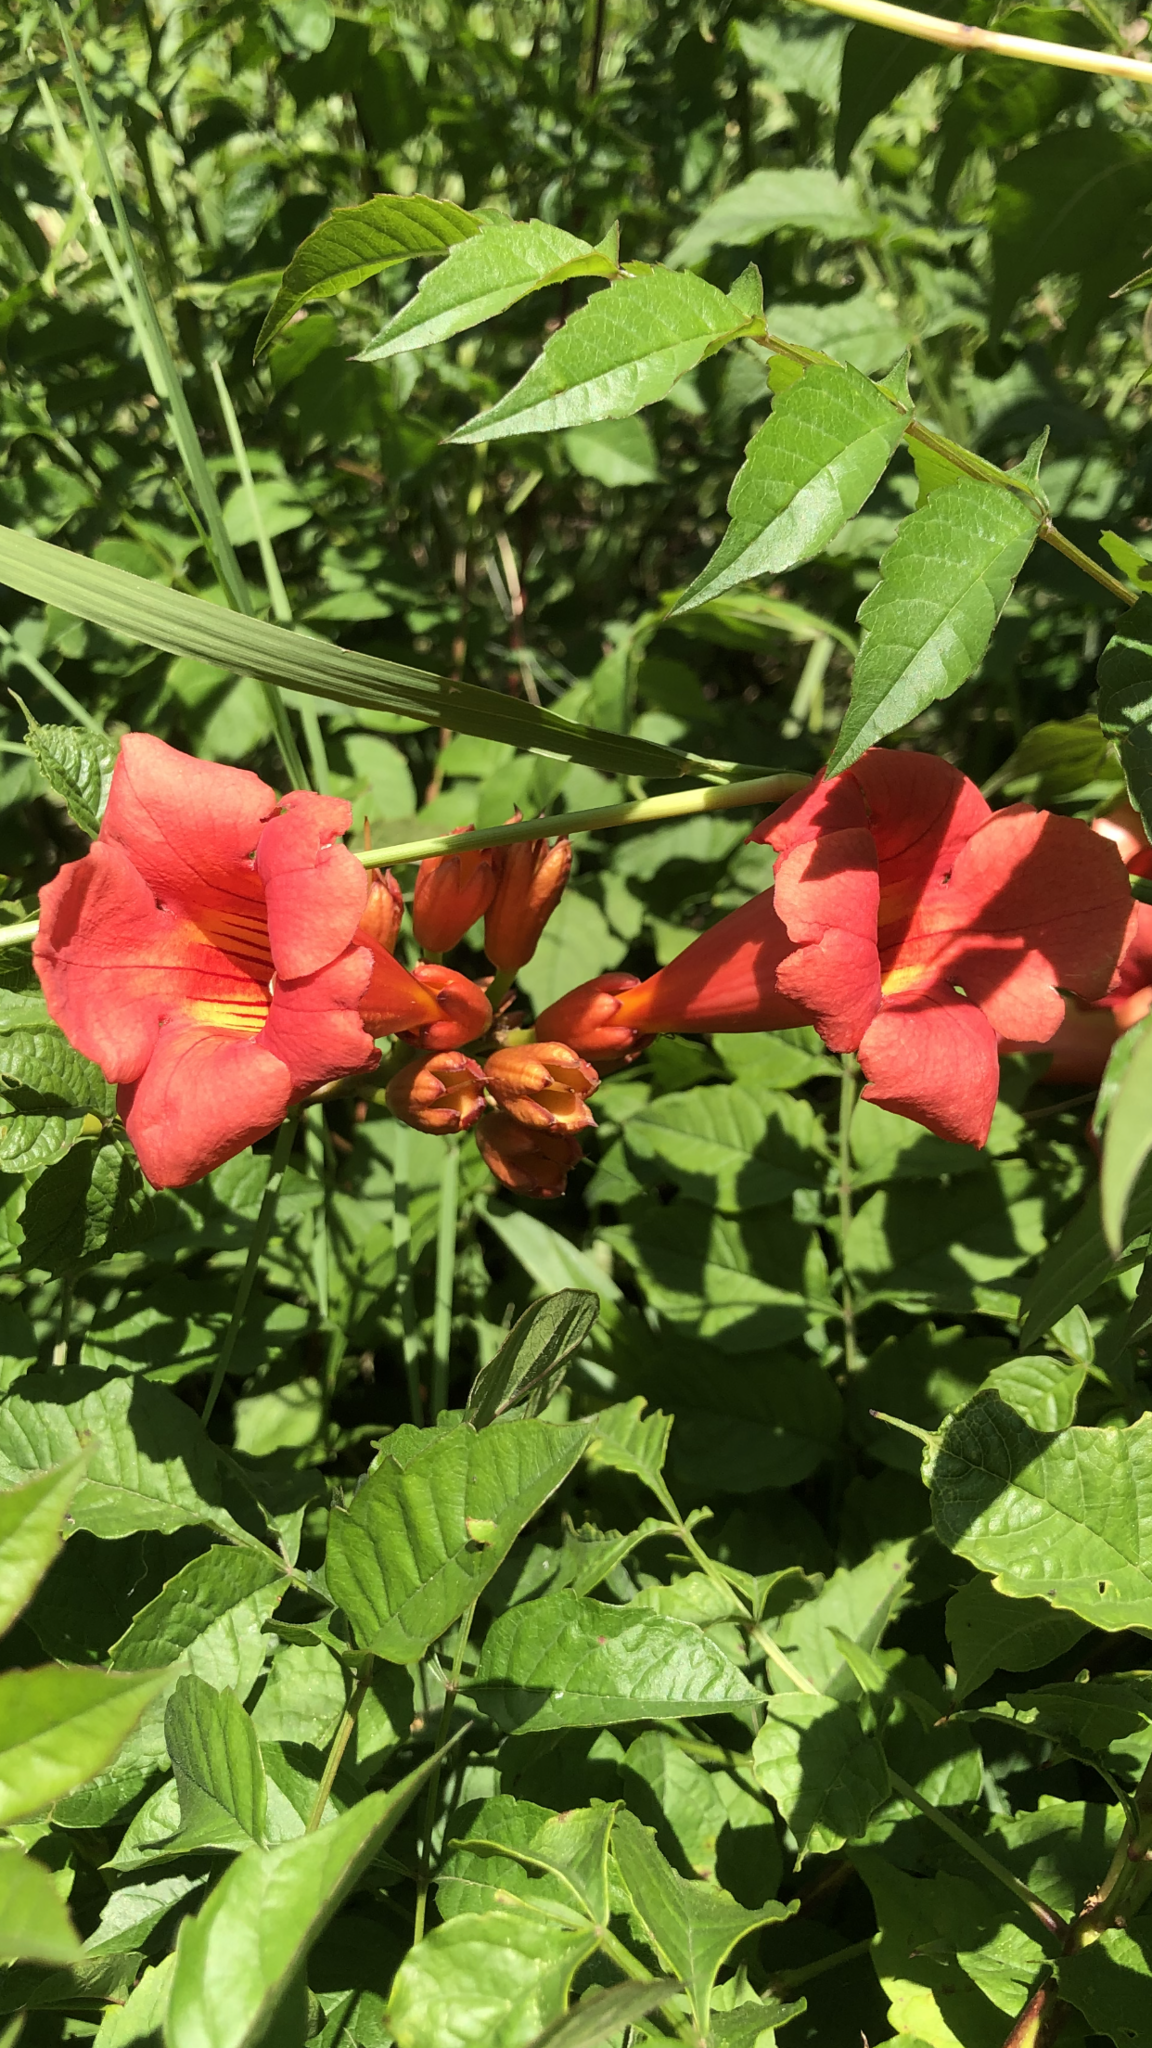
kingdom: Plantae
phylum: Tracheophyta
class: Magnoliopsida
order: Lamiales
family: Bignoniaceae
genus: Campsis
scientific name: Campsis radicans
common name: Trumpet-creeper
